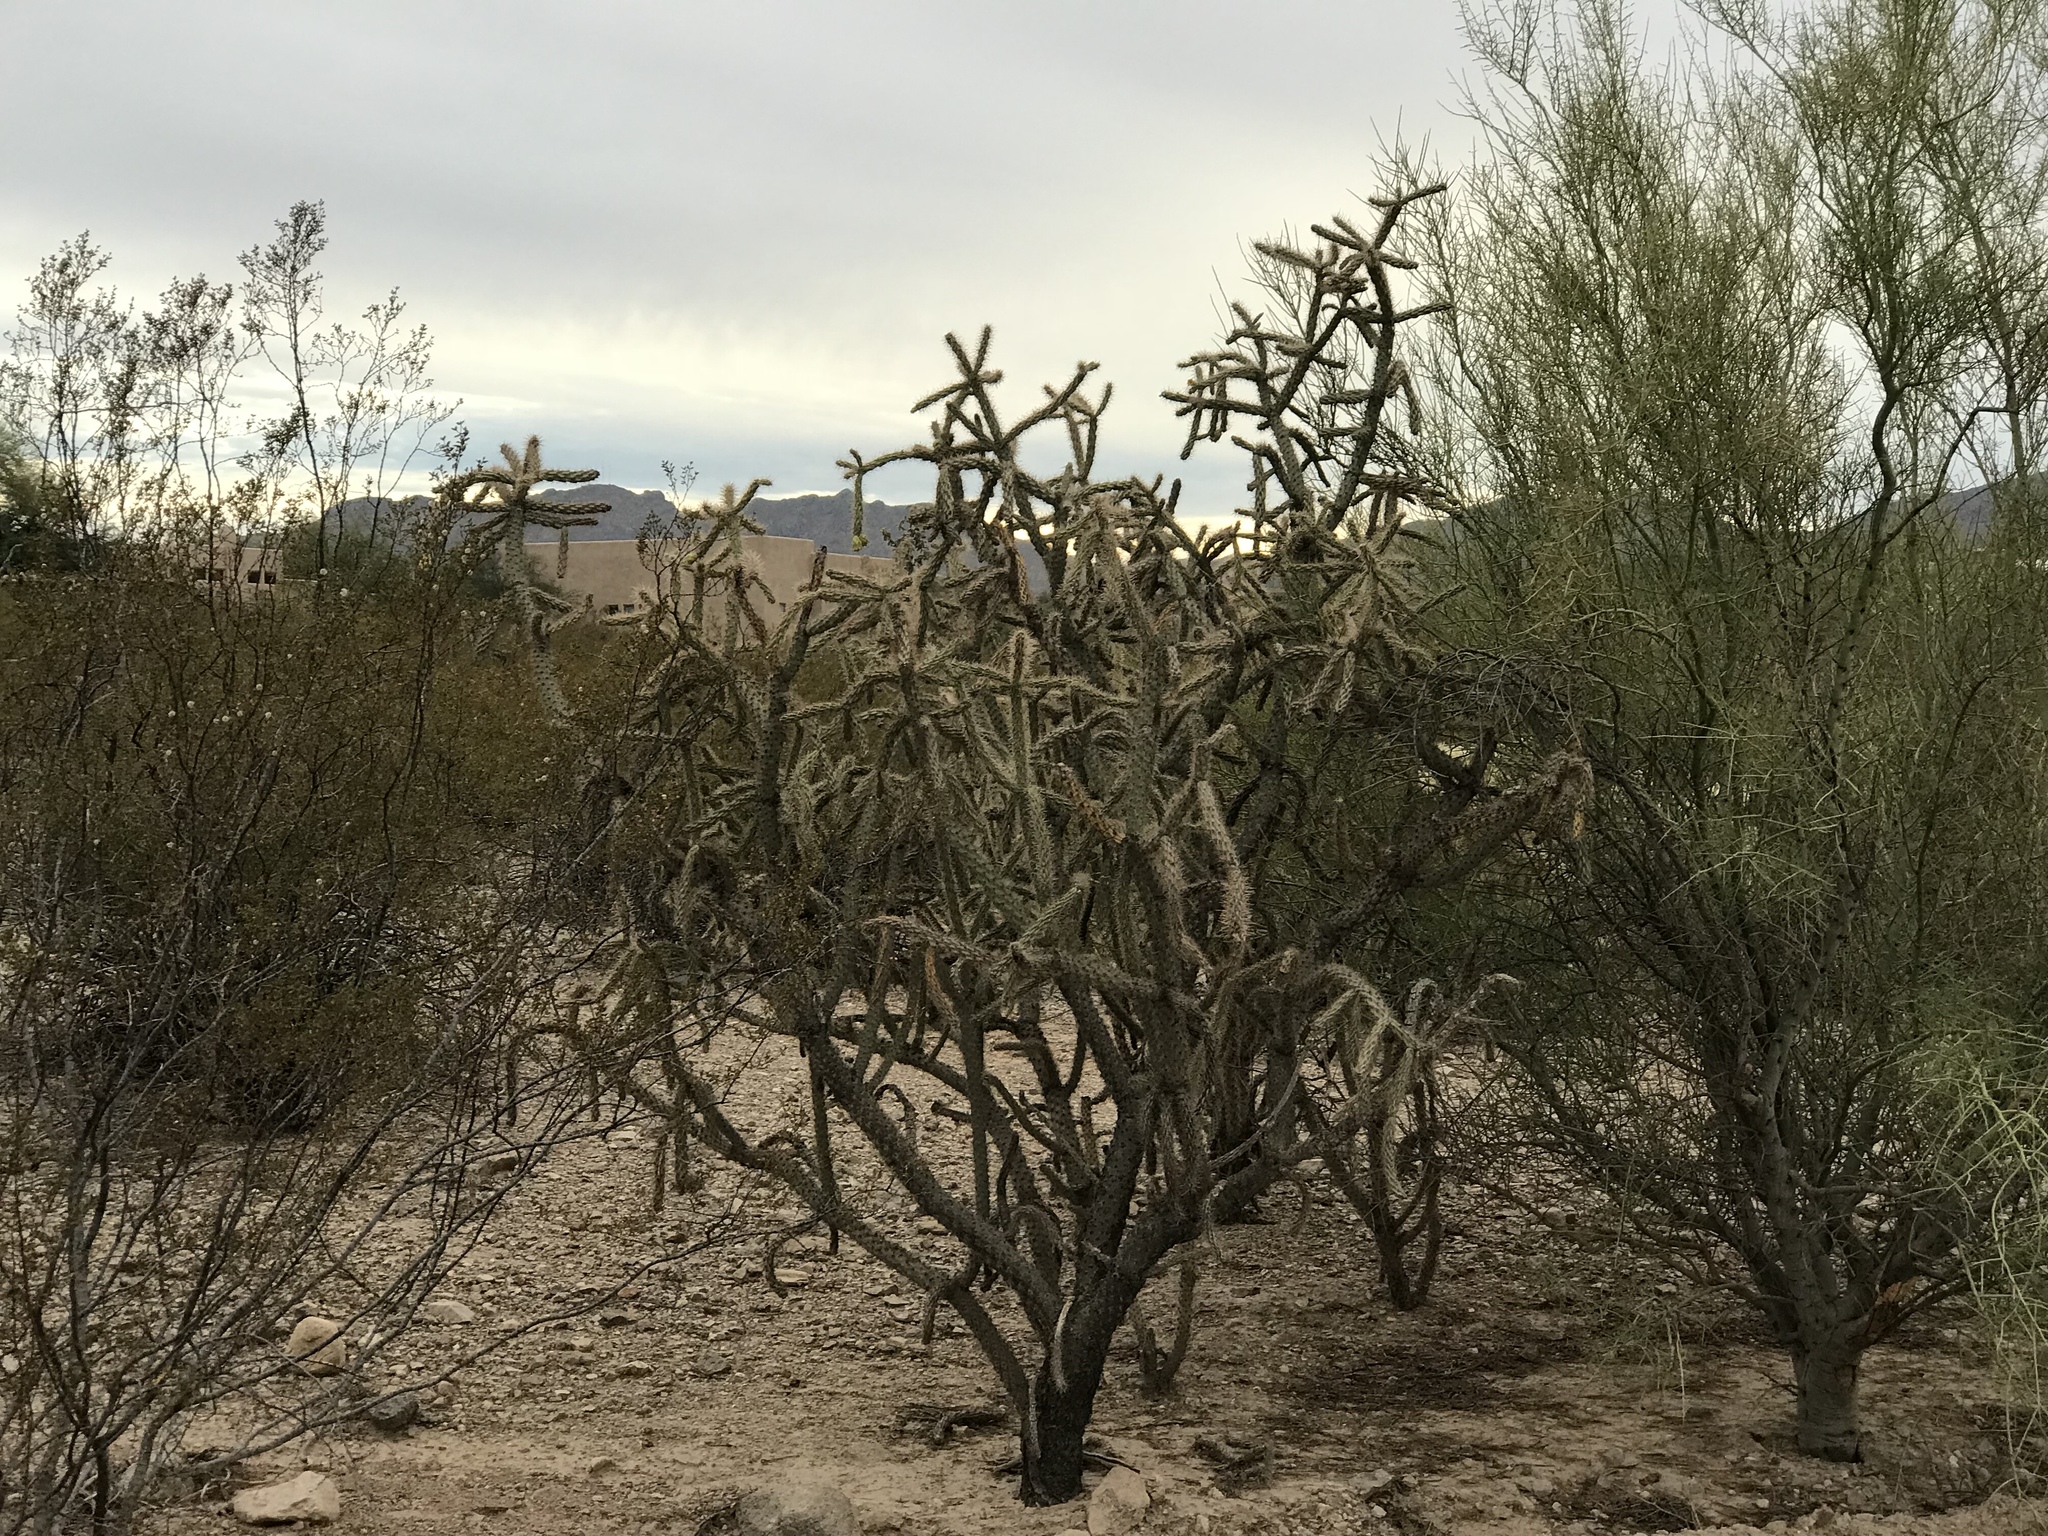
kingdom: Plantae
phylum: Tracheophyta
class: Magnoliopsida
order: Caryophyllales
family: Cactaceae
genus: Cylindropuntia
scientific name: Cylindropuntia acanthocarpa
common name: Buckhorn cholla
